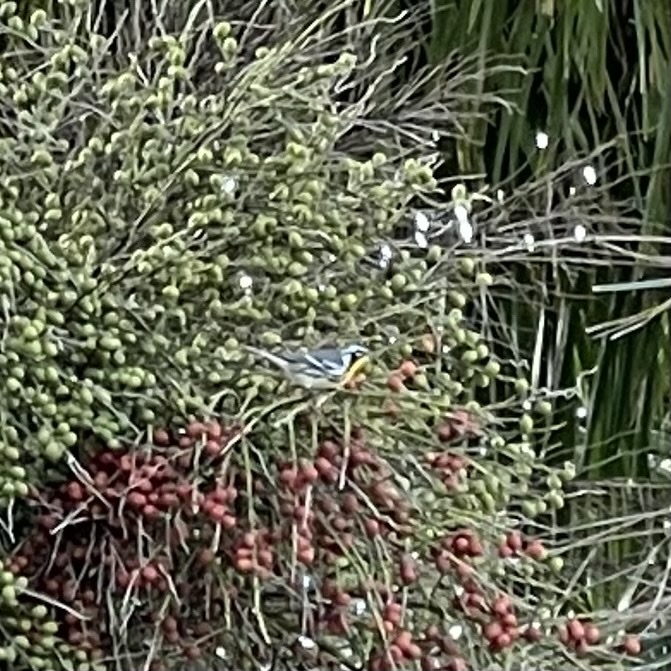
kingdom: Animalia
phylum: Chordata
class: Aves
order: Passeriformes
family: Parulidae
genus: Setophaga
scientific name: Setophaga dominica
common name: Yellow-throated warbler
